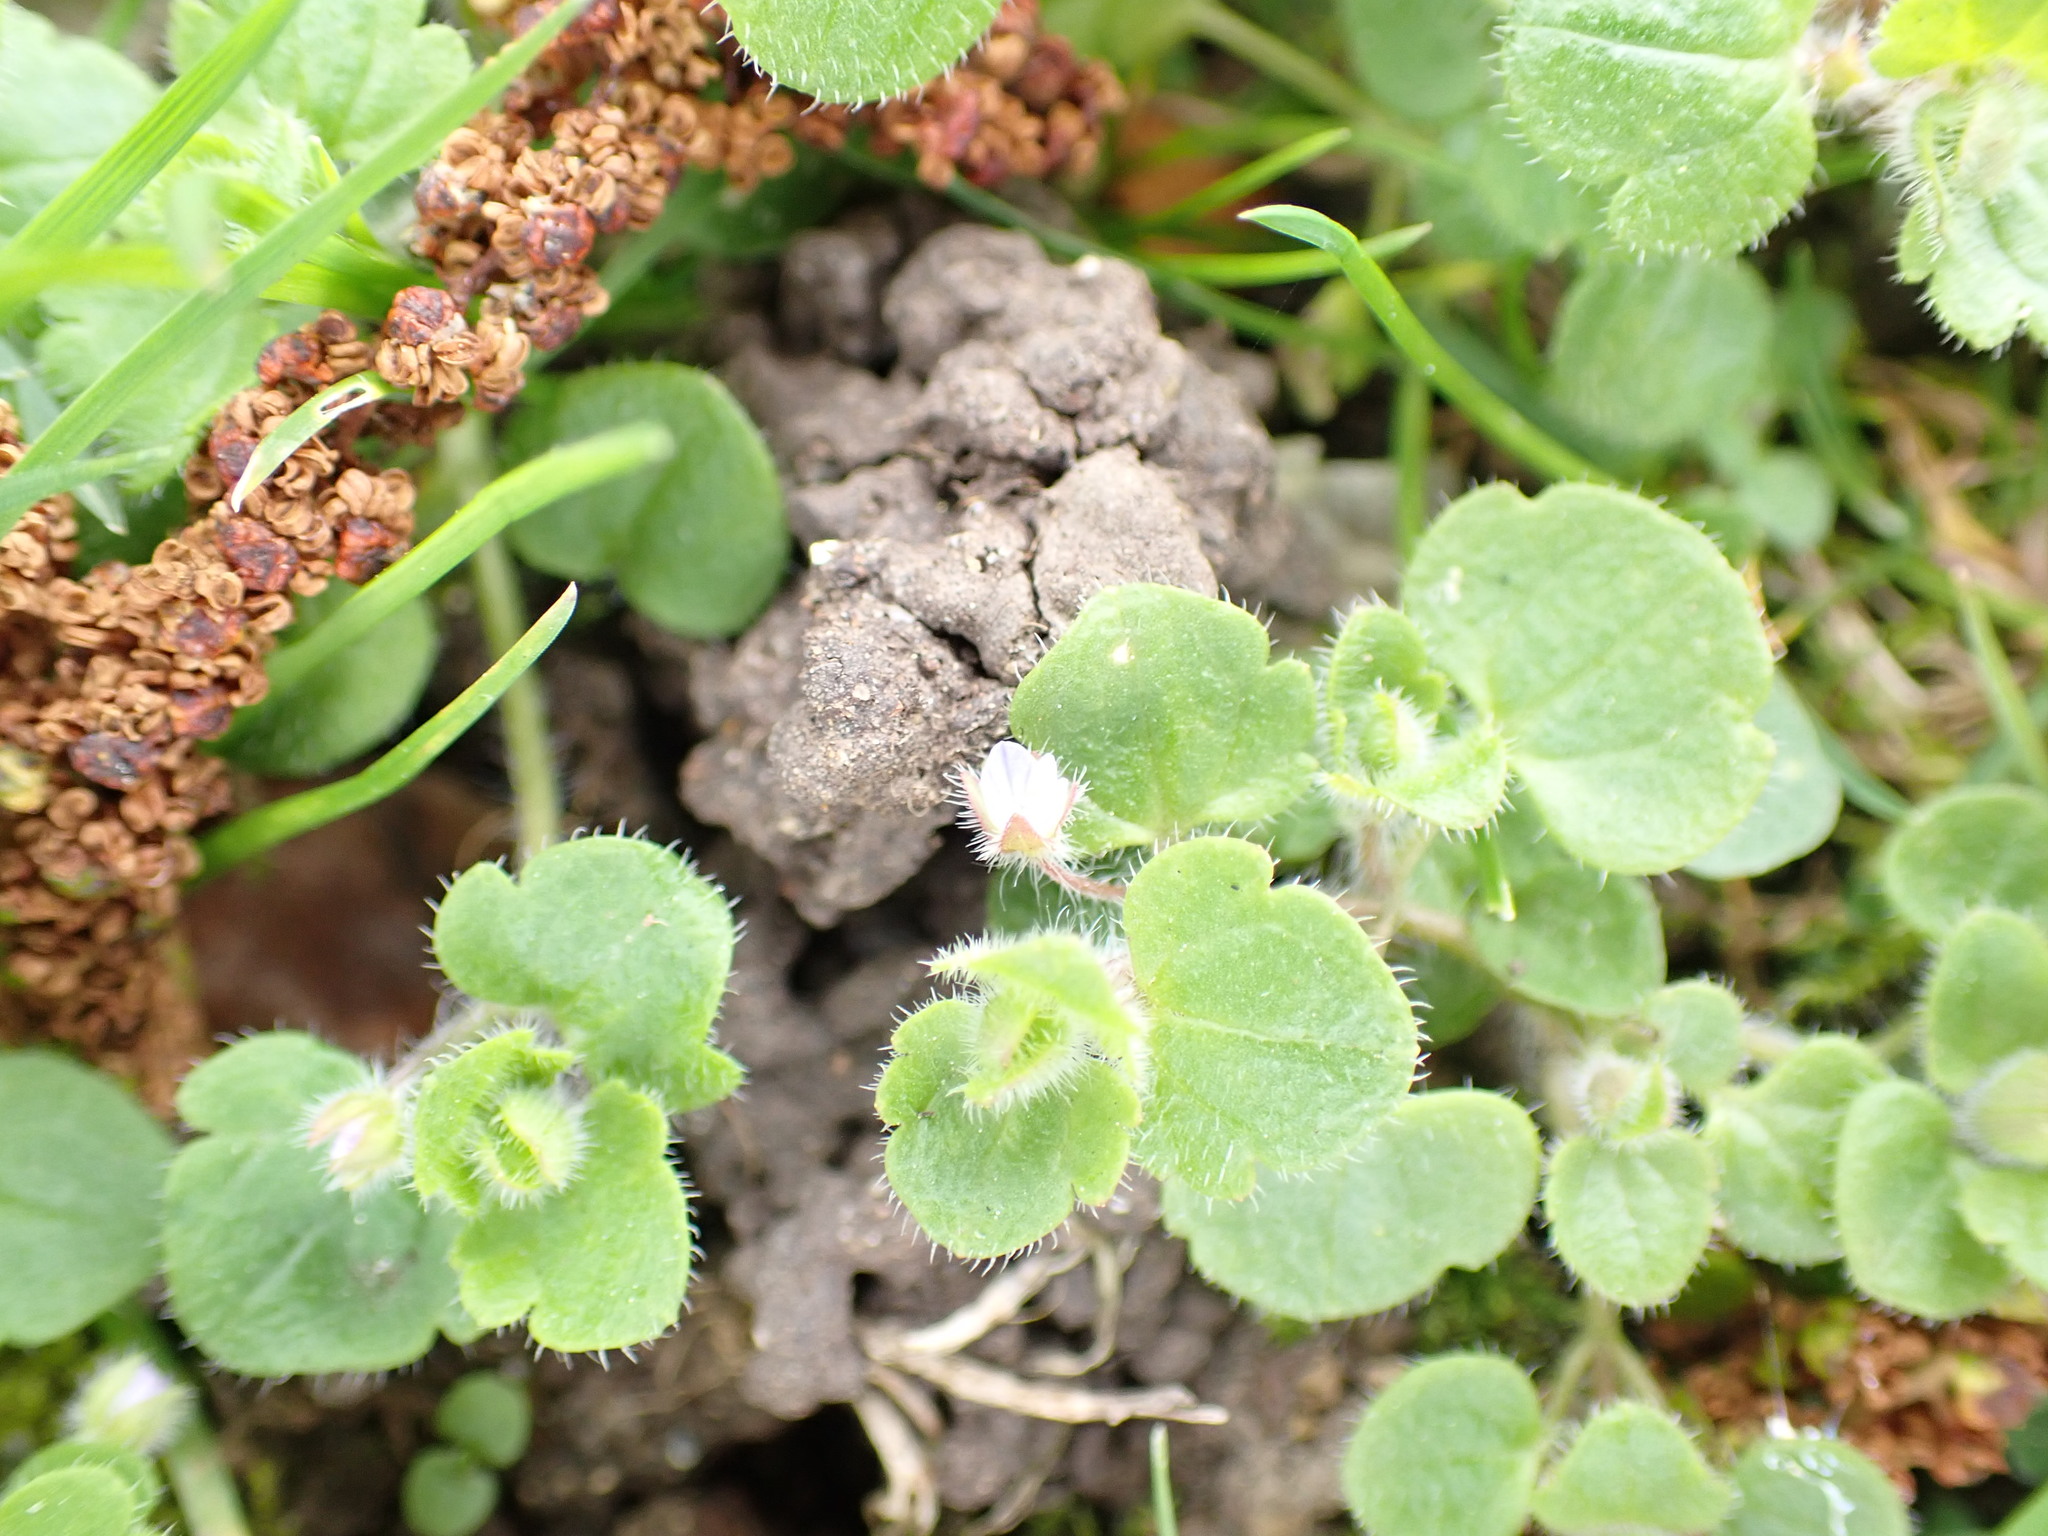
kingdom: Plantae
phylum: Tracheophyta
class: Magnoliopsida
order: Lamiales
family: Plantaginaceae
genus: Veronica
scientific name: Veronica sublobata
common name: False ivy-leaved speedwell
